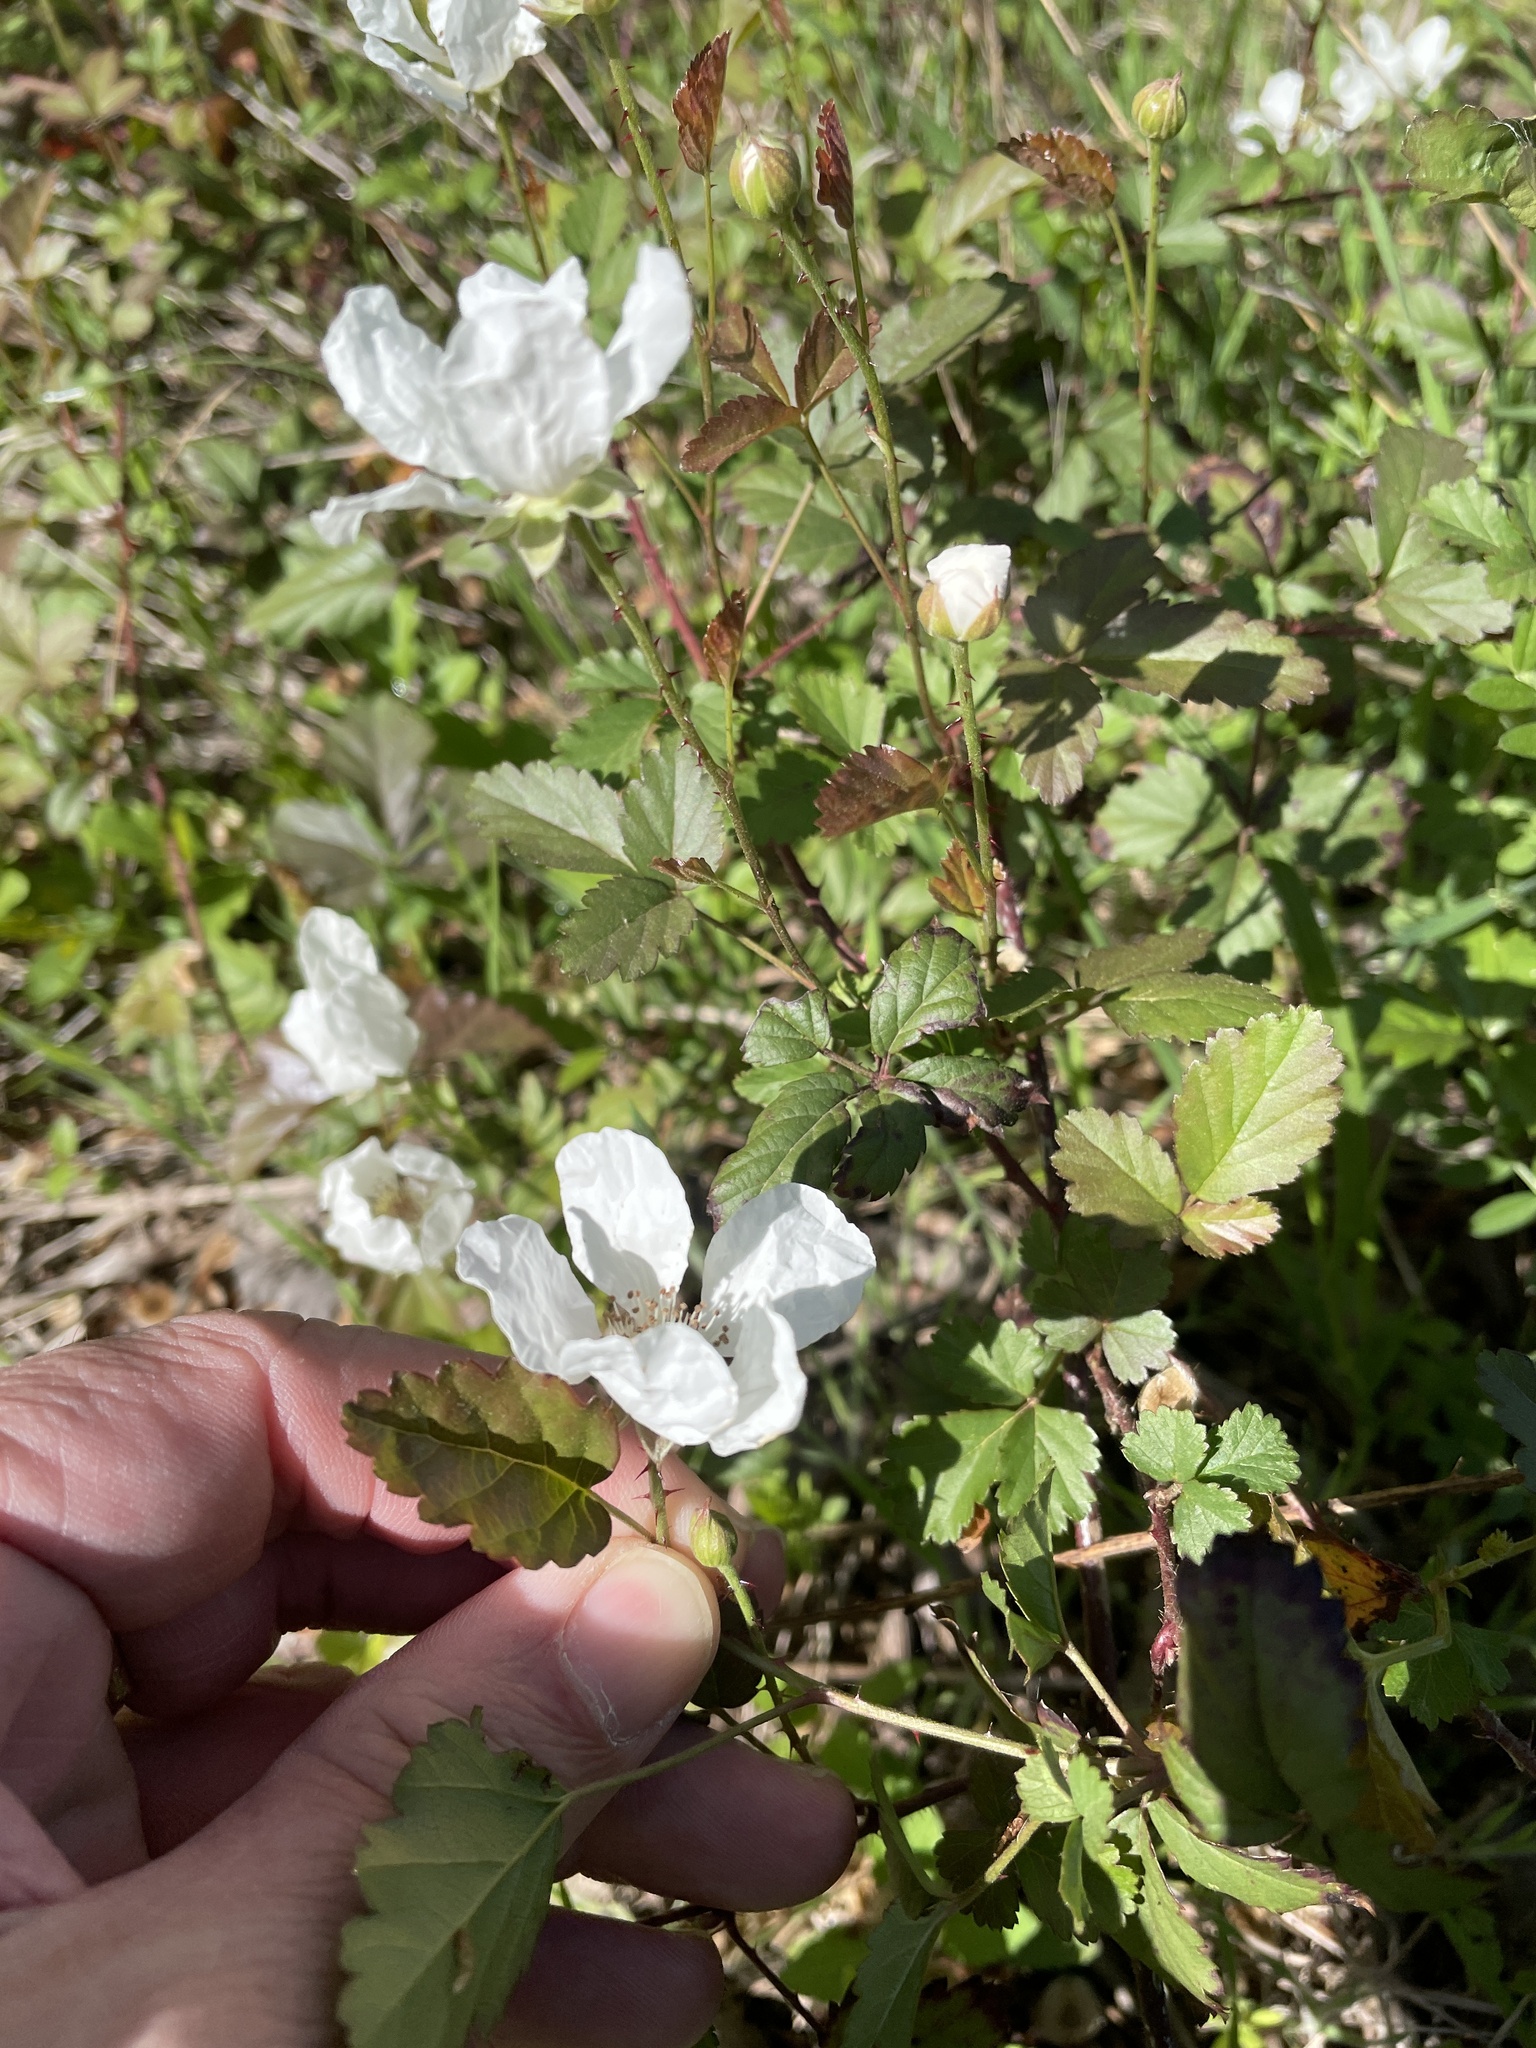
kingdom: Plantae
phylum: Tracheophyta
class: Magnoliopsida
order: Rosales
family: Rosaceae
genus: Rubus
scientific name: Rubus trivialis
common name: Southern dewberry
